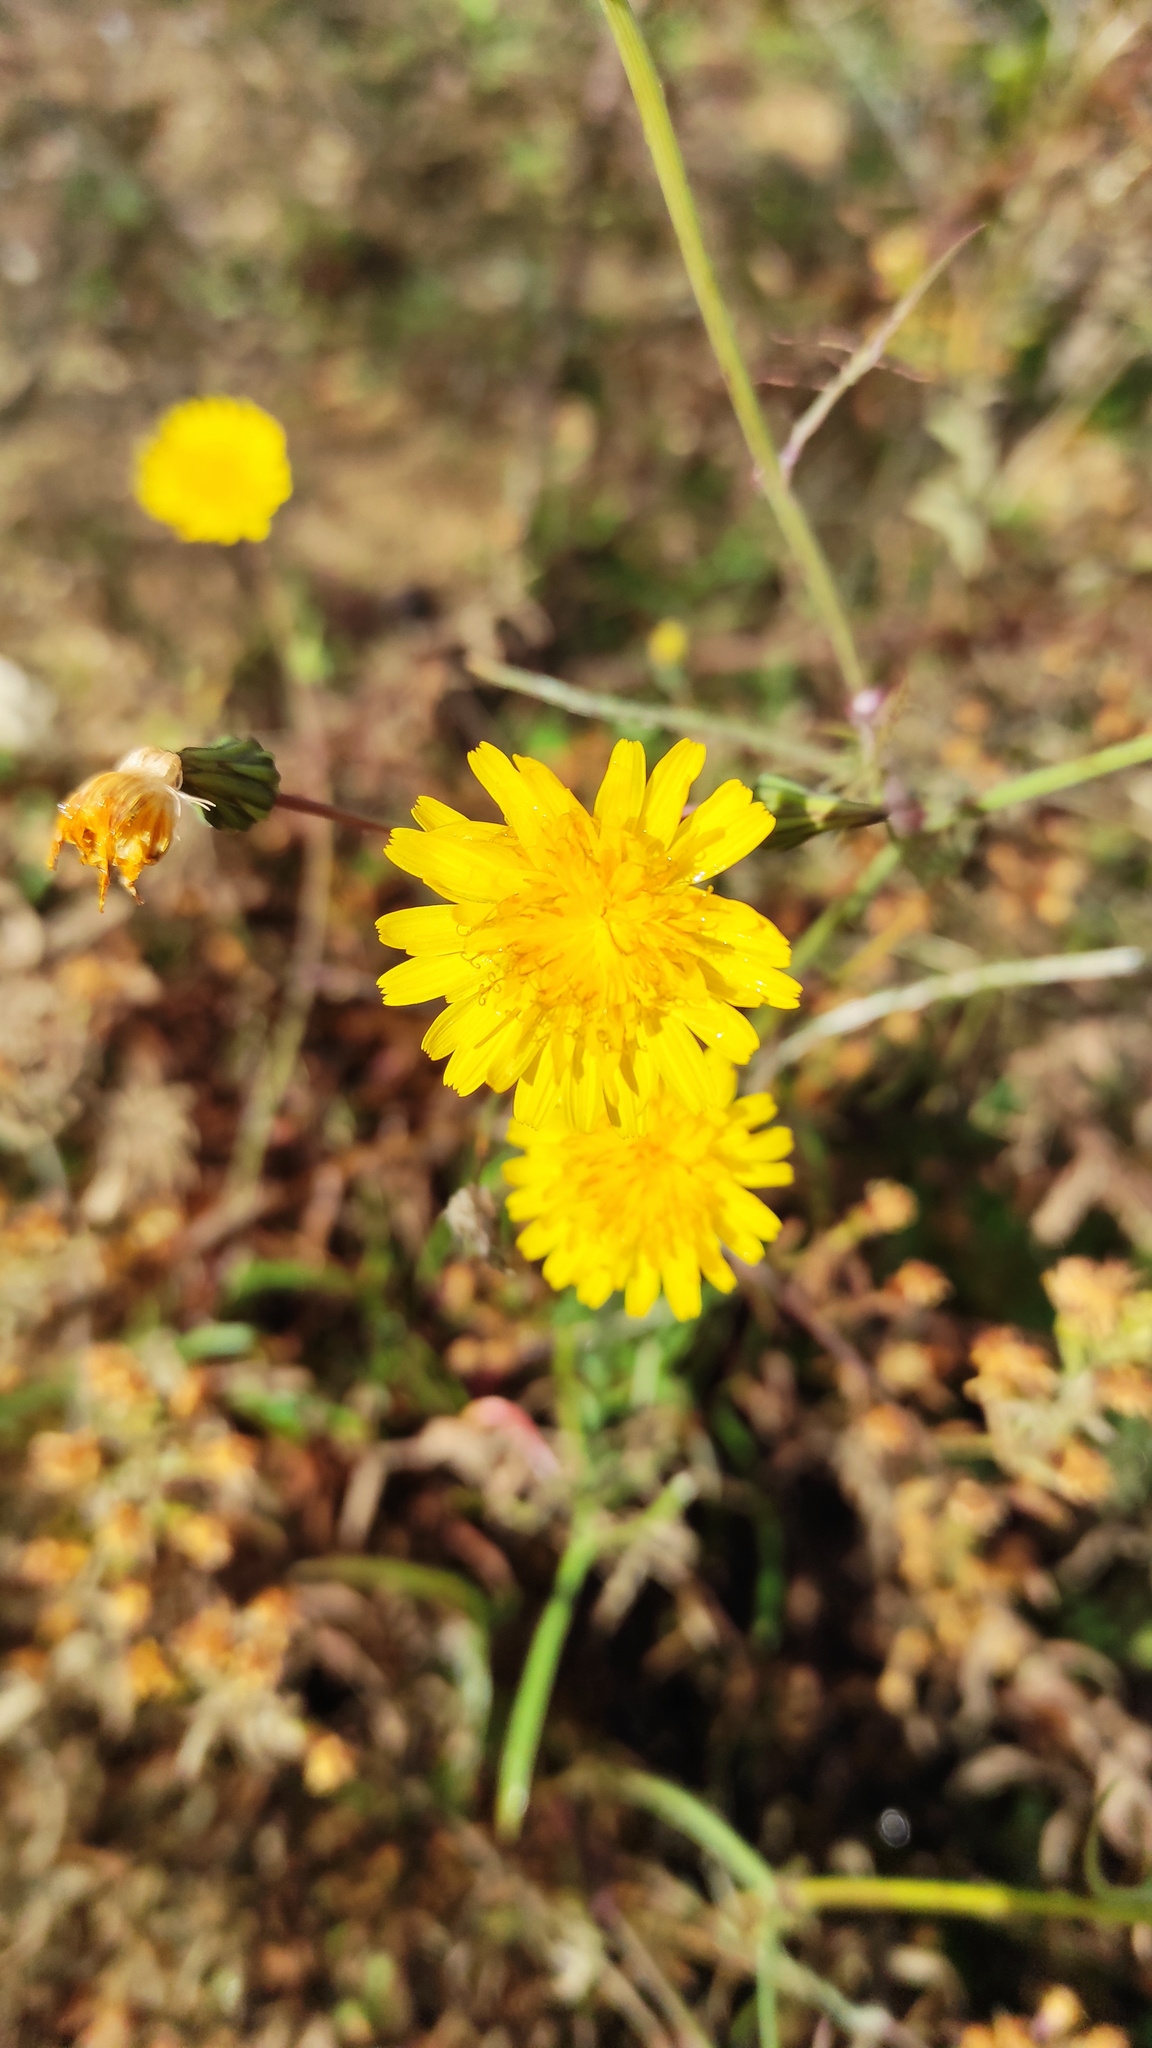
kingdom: Plantae
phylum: Tracheophyta
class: Magnoliopsida
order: Asterales
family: Asteraceae
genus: Sonchus
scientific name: Sonchus tenerrimus
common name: Clammy sowthistle
